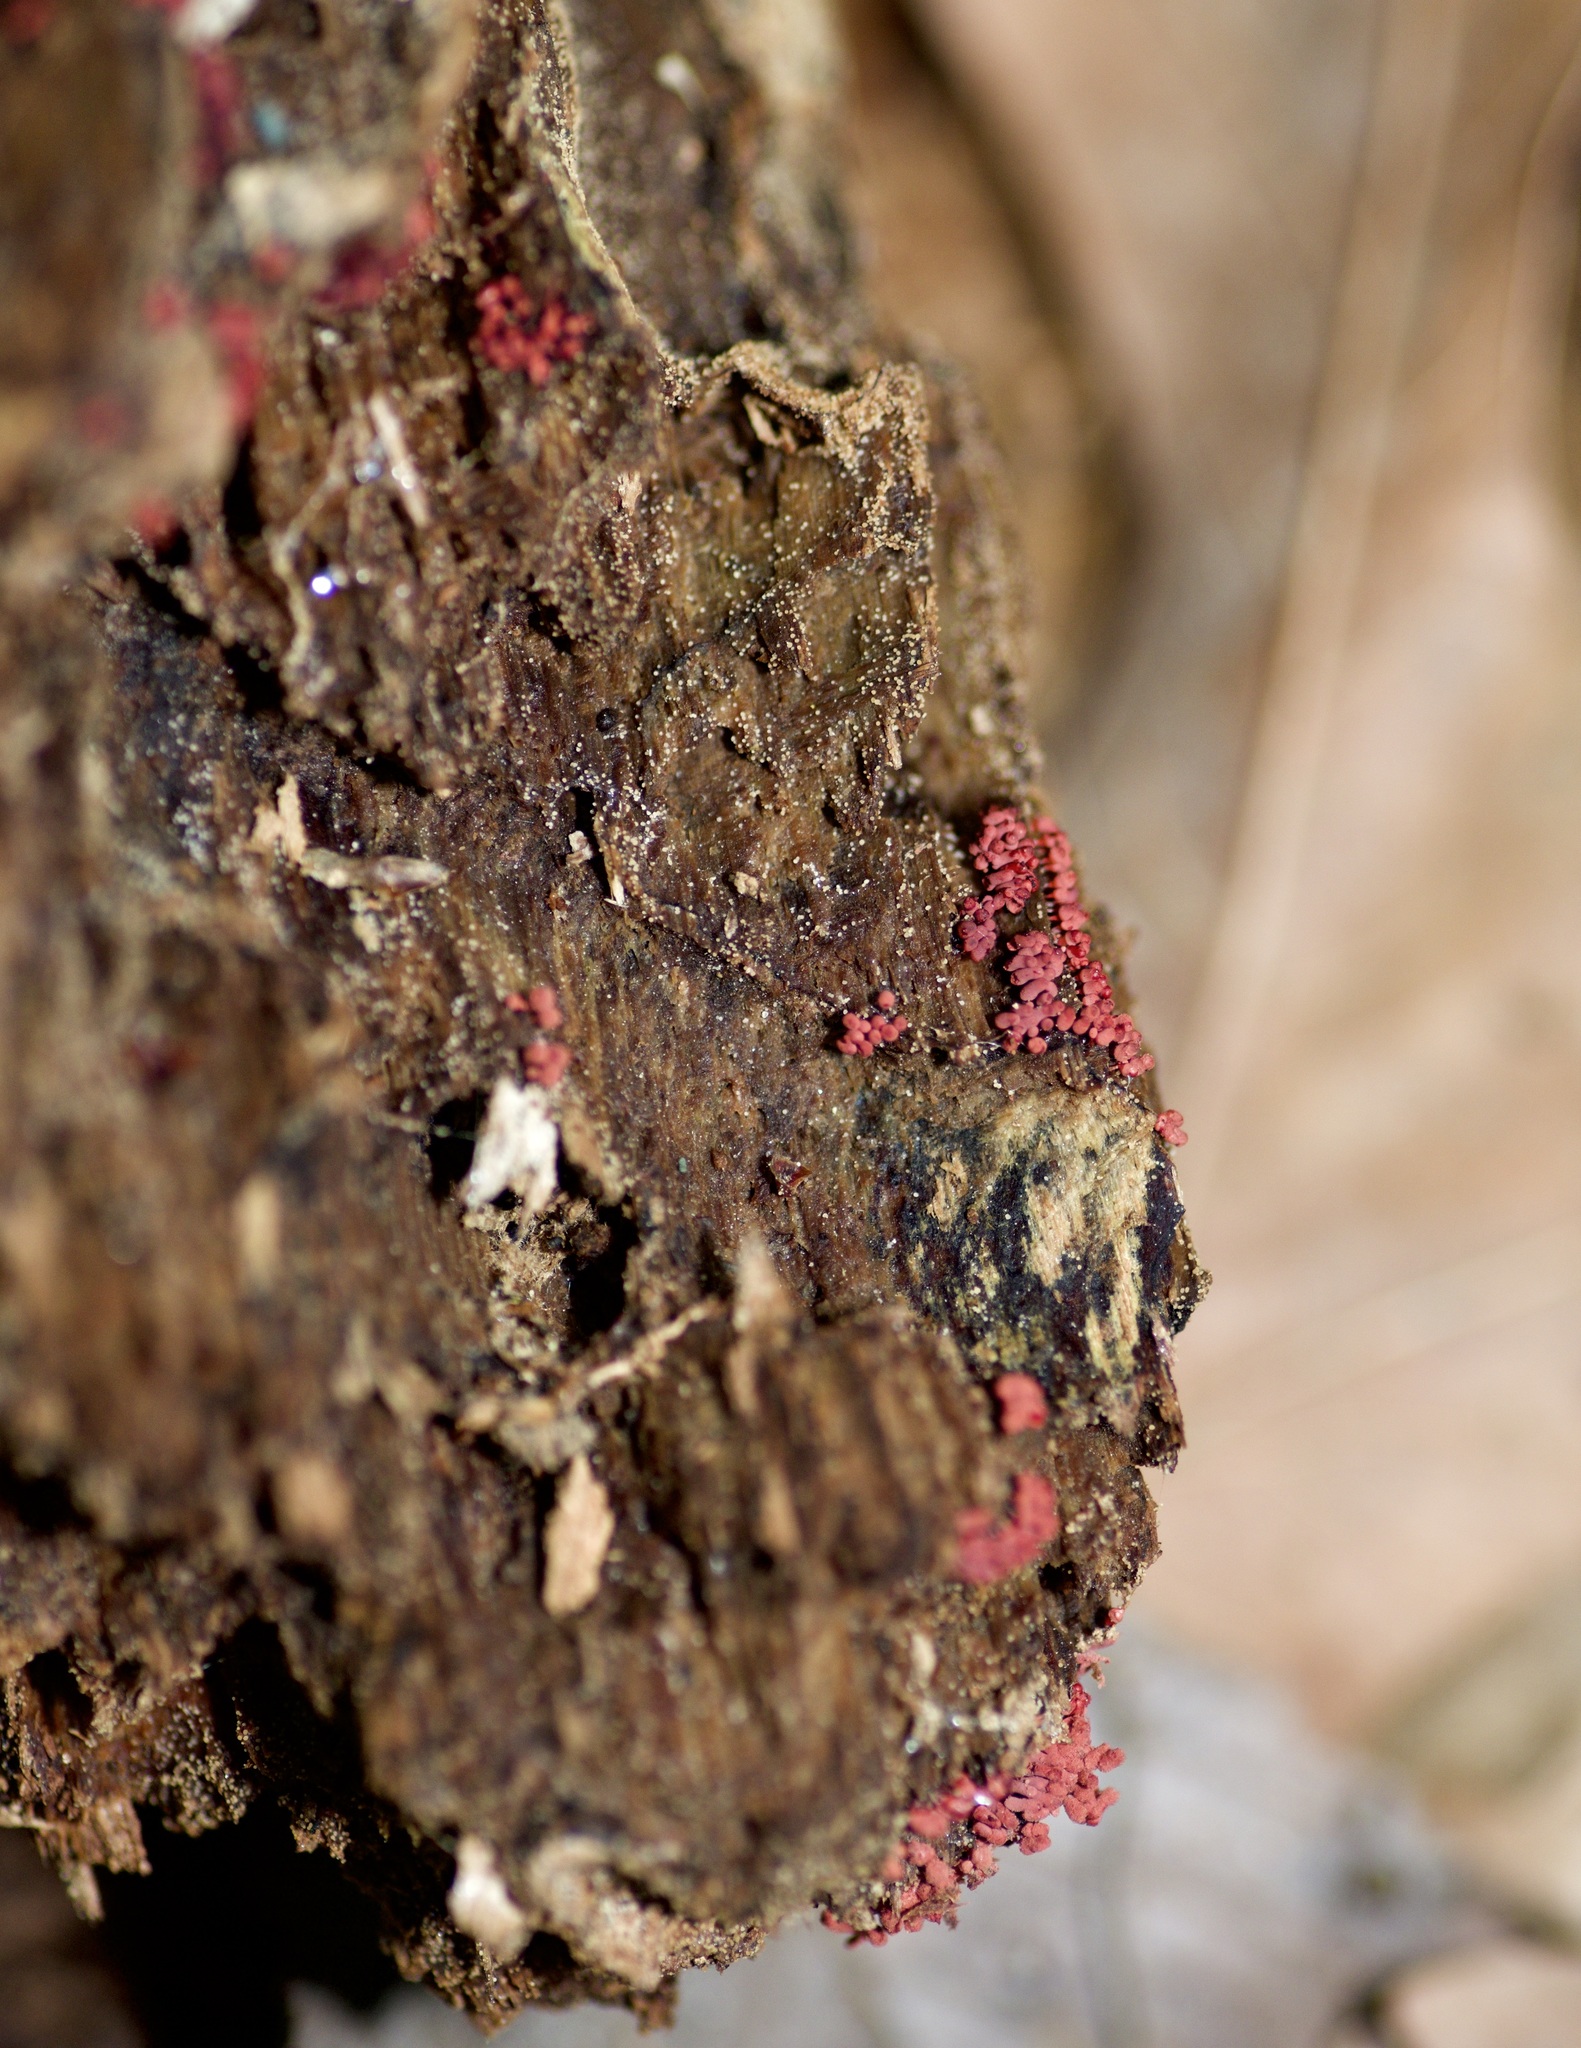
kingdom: Protozoa
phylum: Mycetozoa
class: Myxomycetes
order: Trichiales
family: Arcyriaceae
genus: Arcyria
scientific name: Arcyria denudata
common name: Carnival candy slime mold
